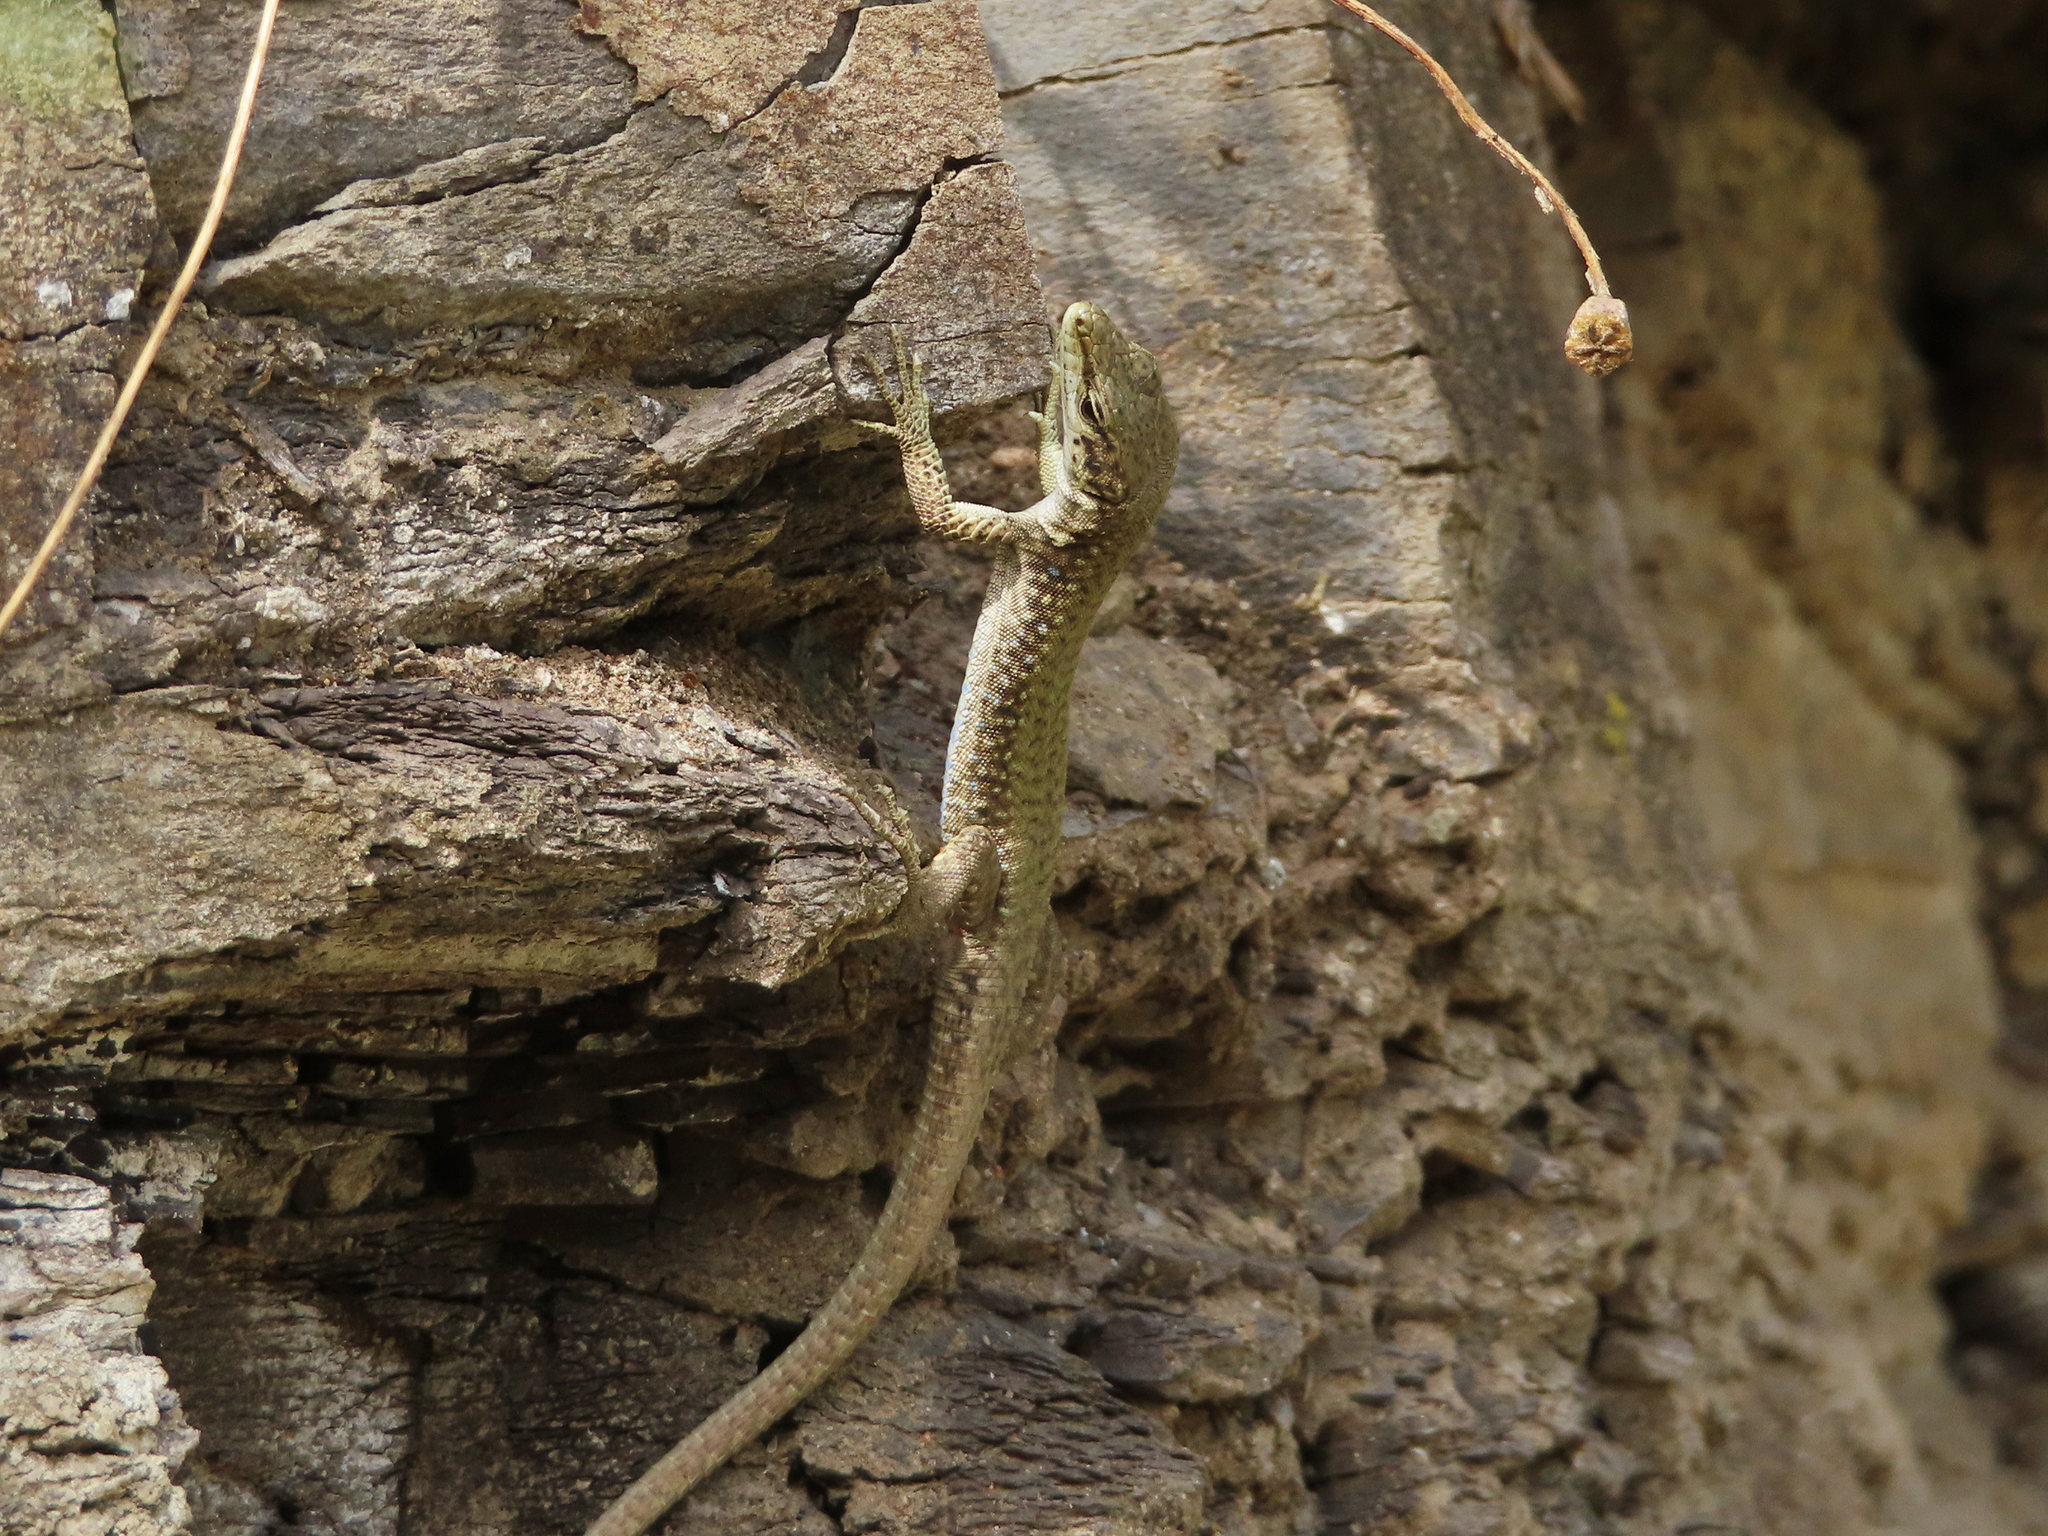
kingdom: Animalia
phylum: Chordata
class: Squamata
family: Lacertidae
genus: Darevskia
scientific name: Darevskia portschinskii
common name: River kura lizard
